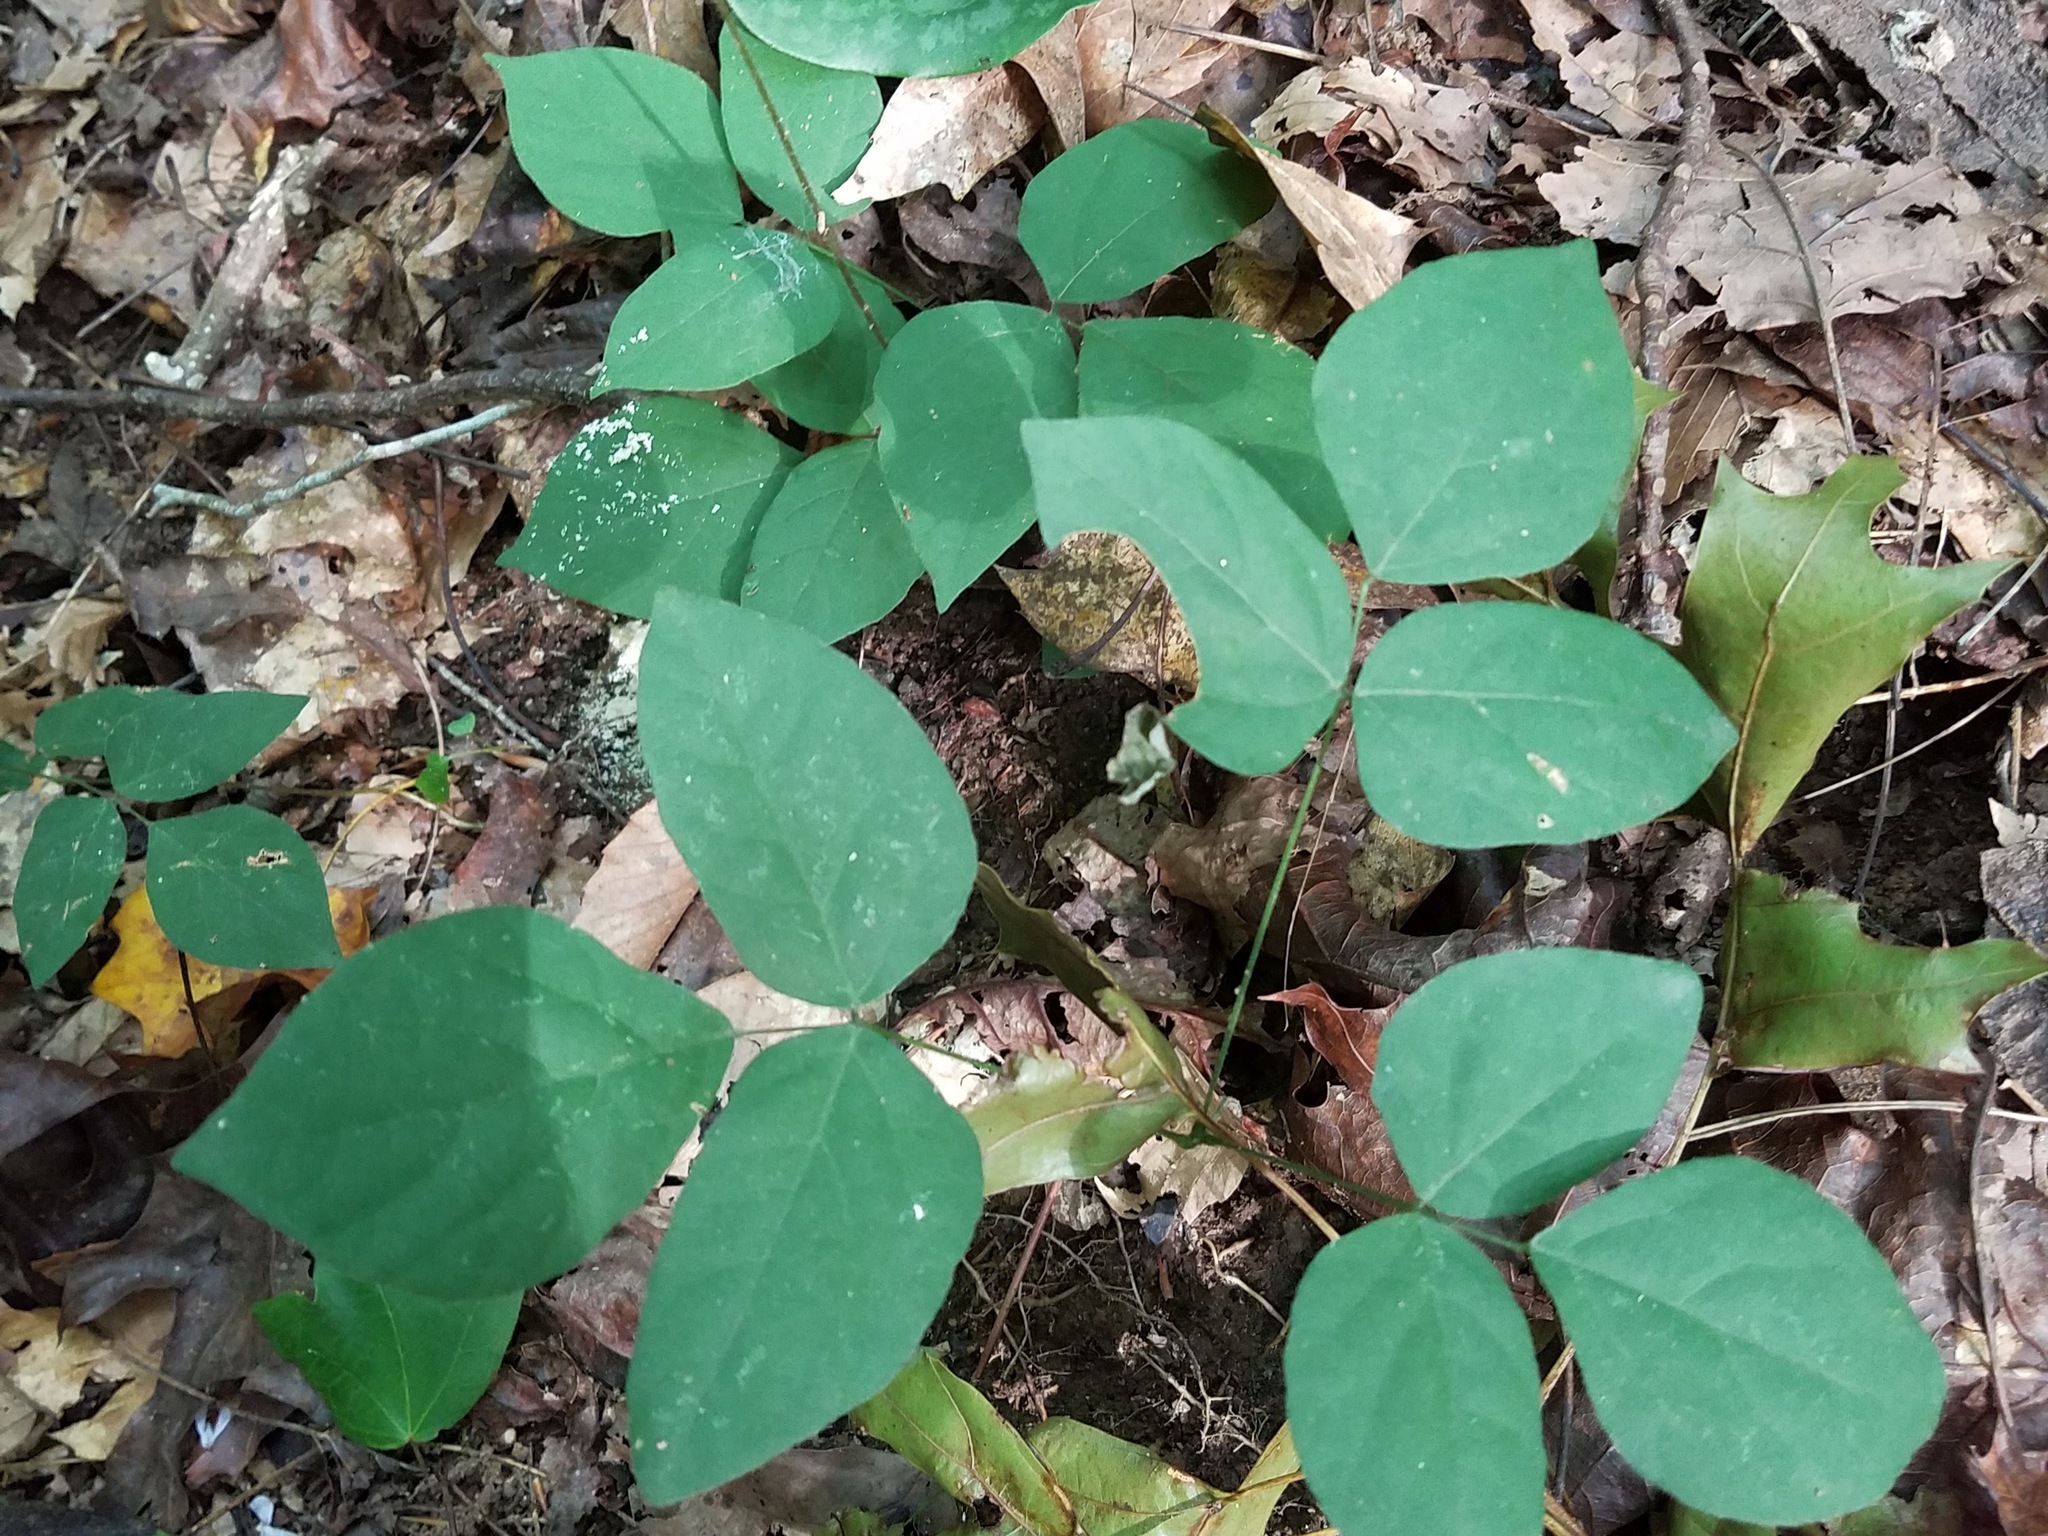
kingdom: Plantae
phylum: Tracheophyta
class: Magnoliopsida
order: Fabales
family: Fabaceae
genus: Hylodesmum
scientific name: Hylodesmum nudiflorum
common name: Bare-stemmed tick-trefoil
